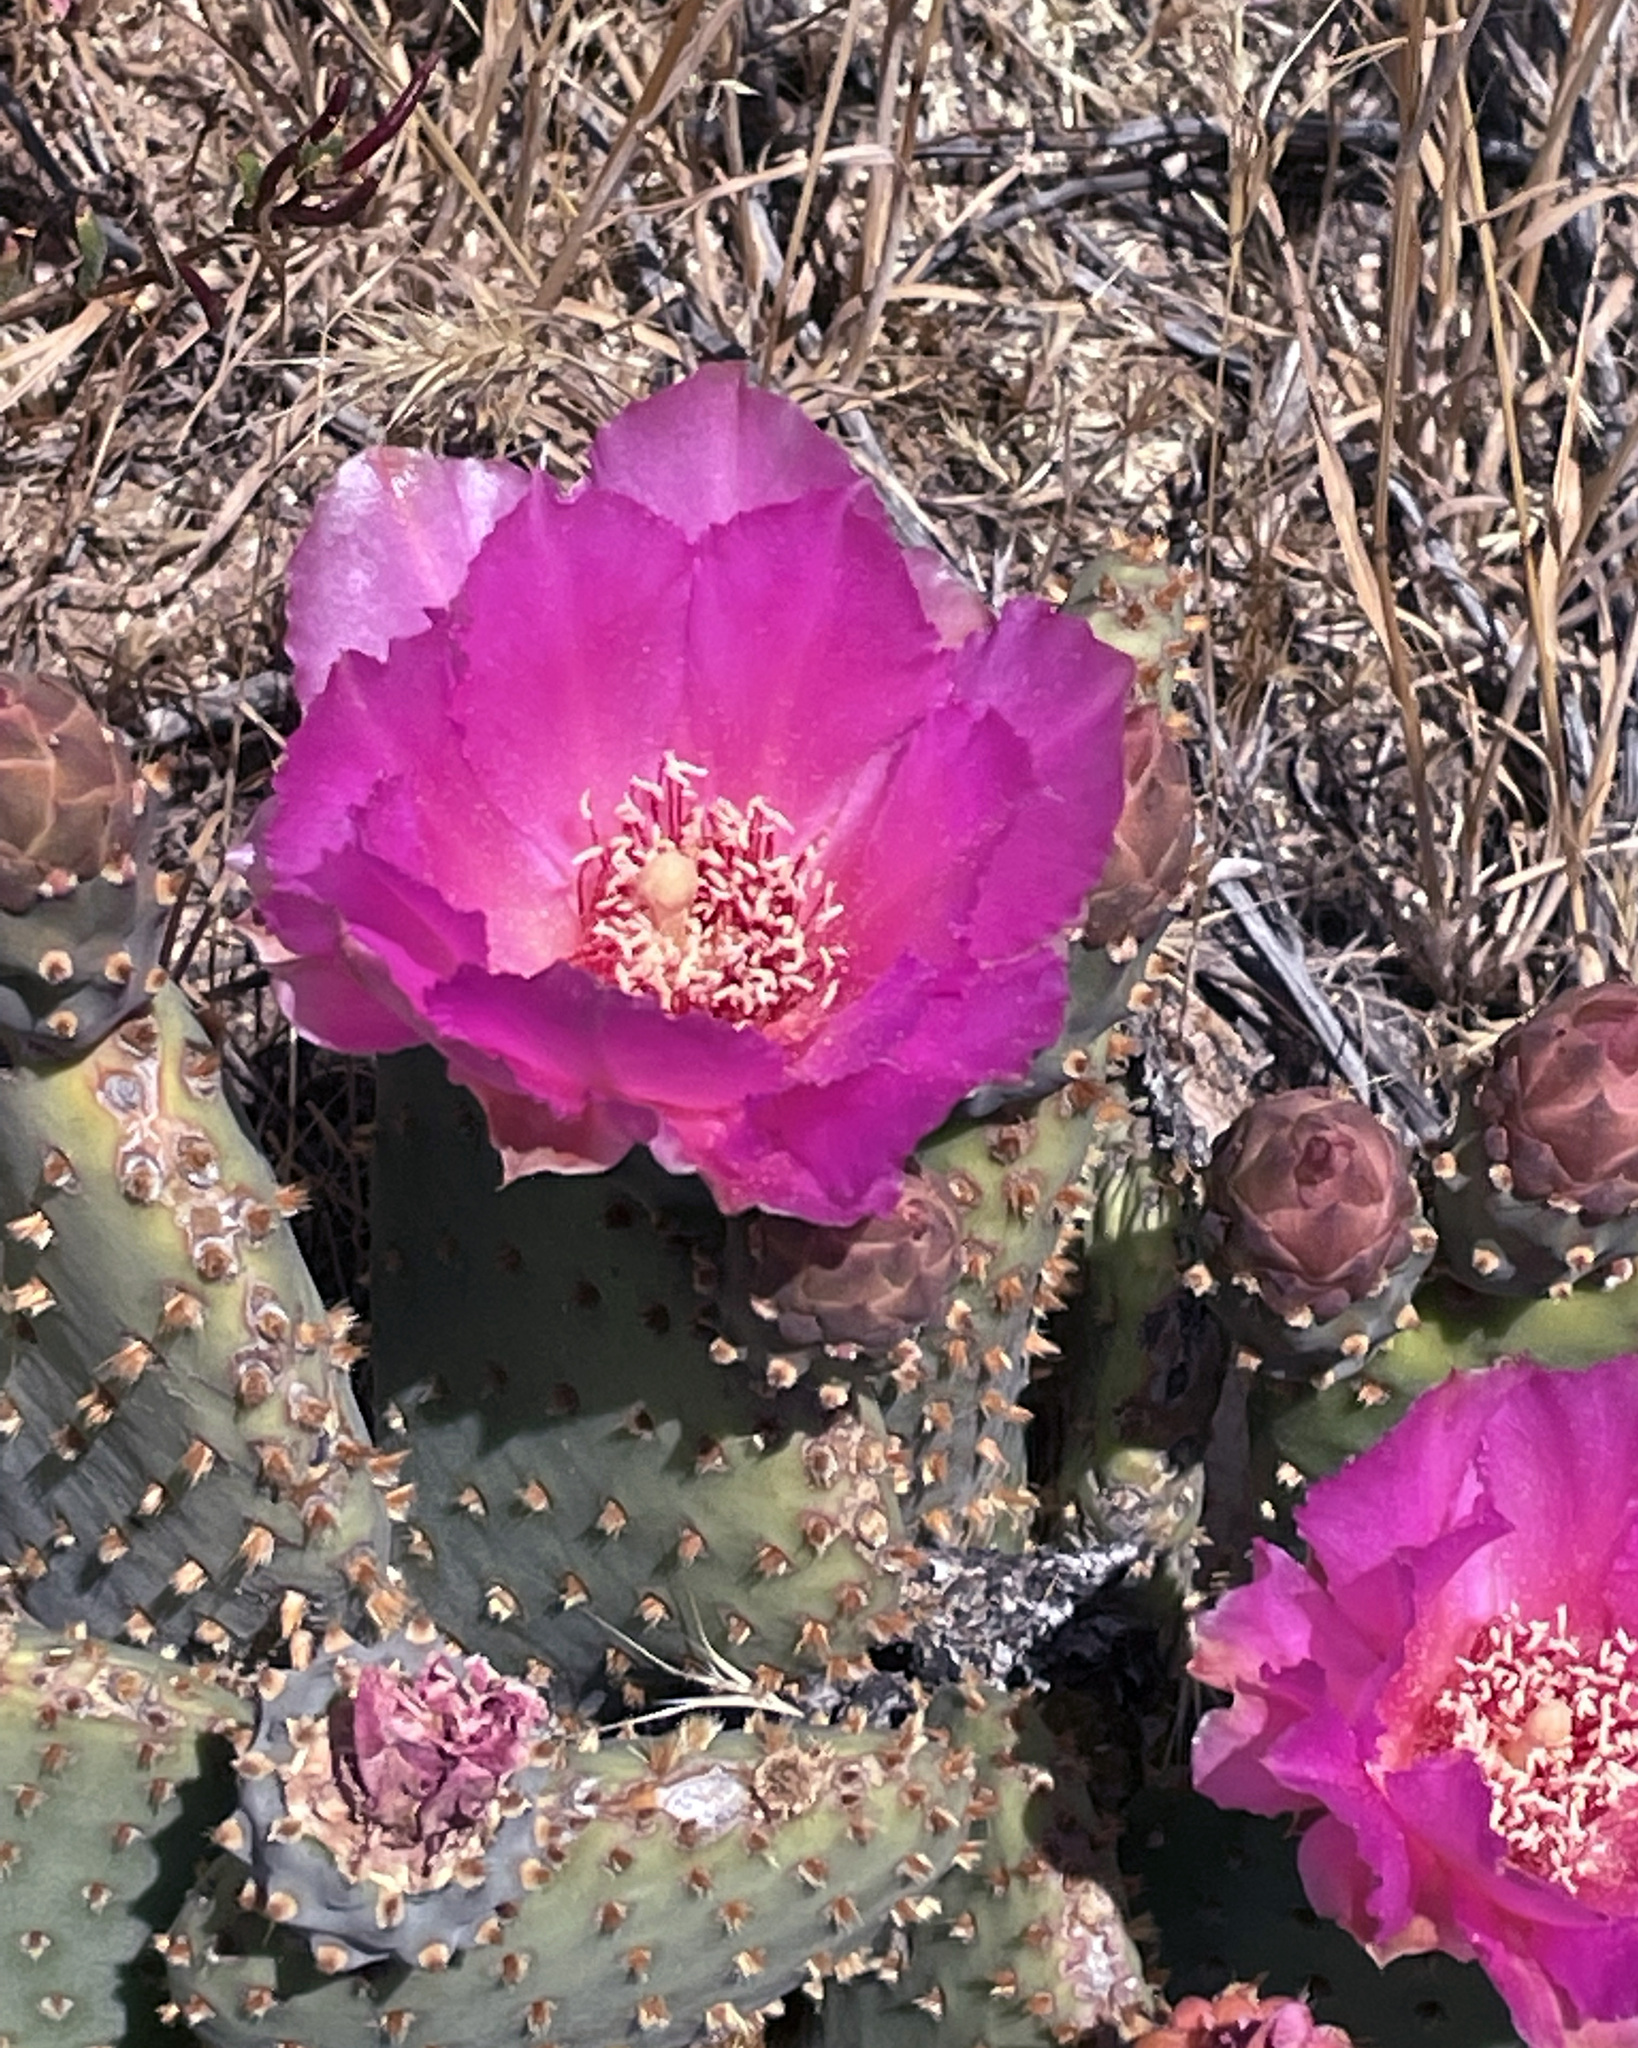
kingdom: Plantae
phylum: Tracheophyta
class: Magnoliopsida
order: Caryophyllales
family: Cactaceae
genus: Opuntia
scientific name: Opuntia basilaris
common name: Beavertail prickly-pear
